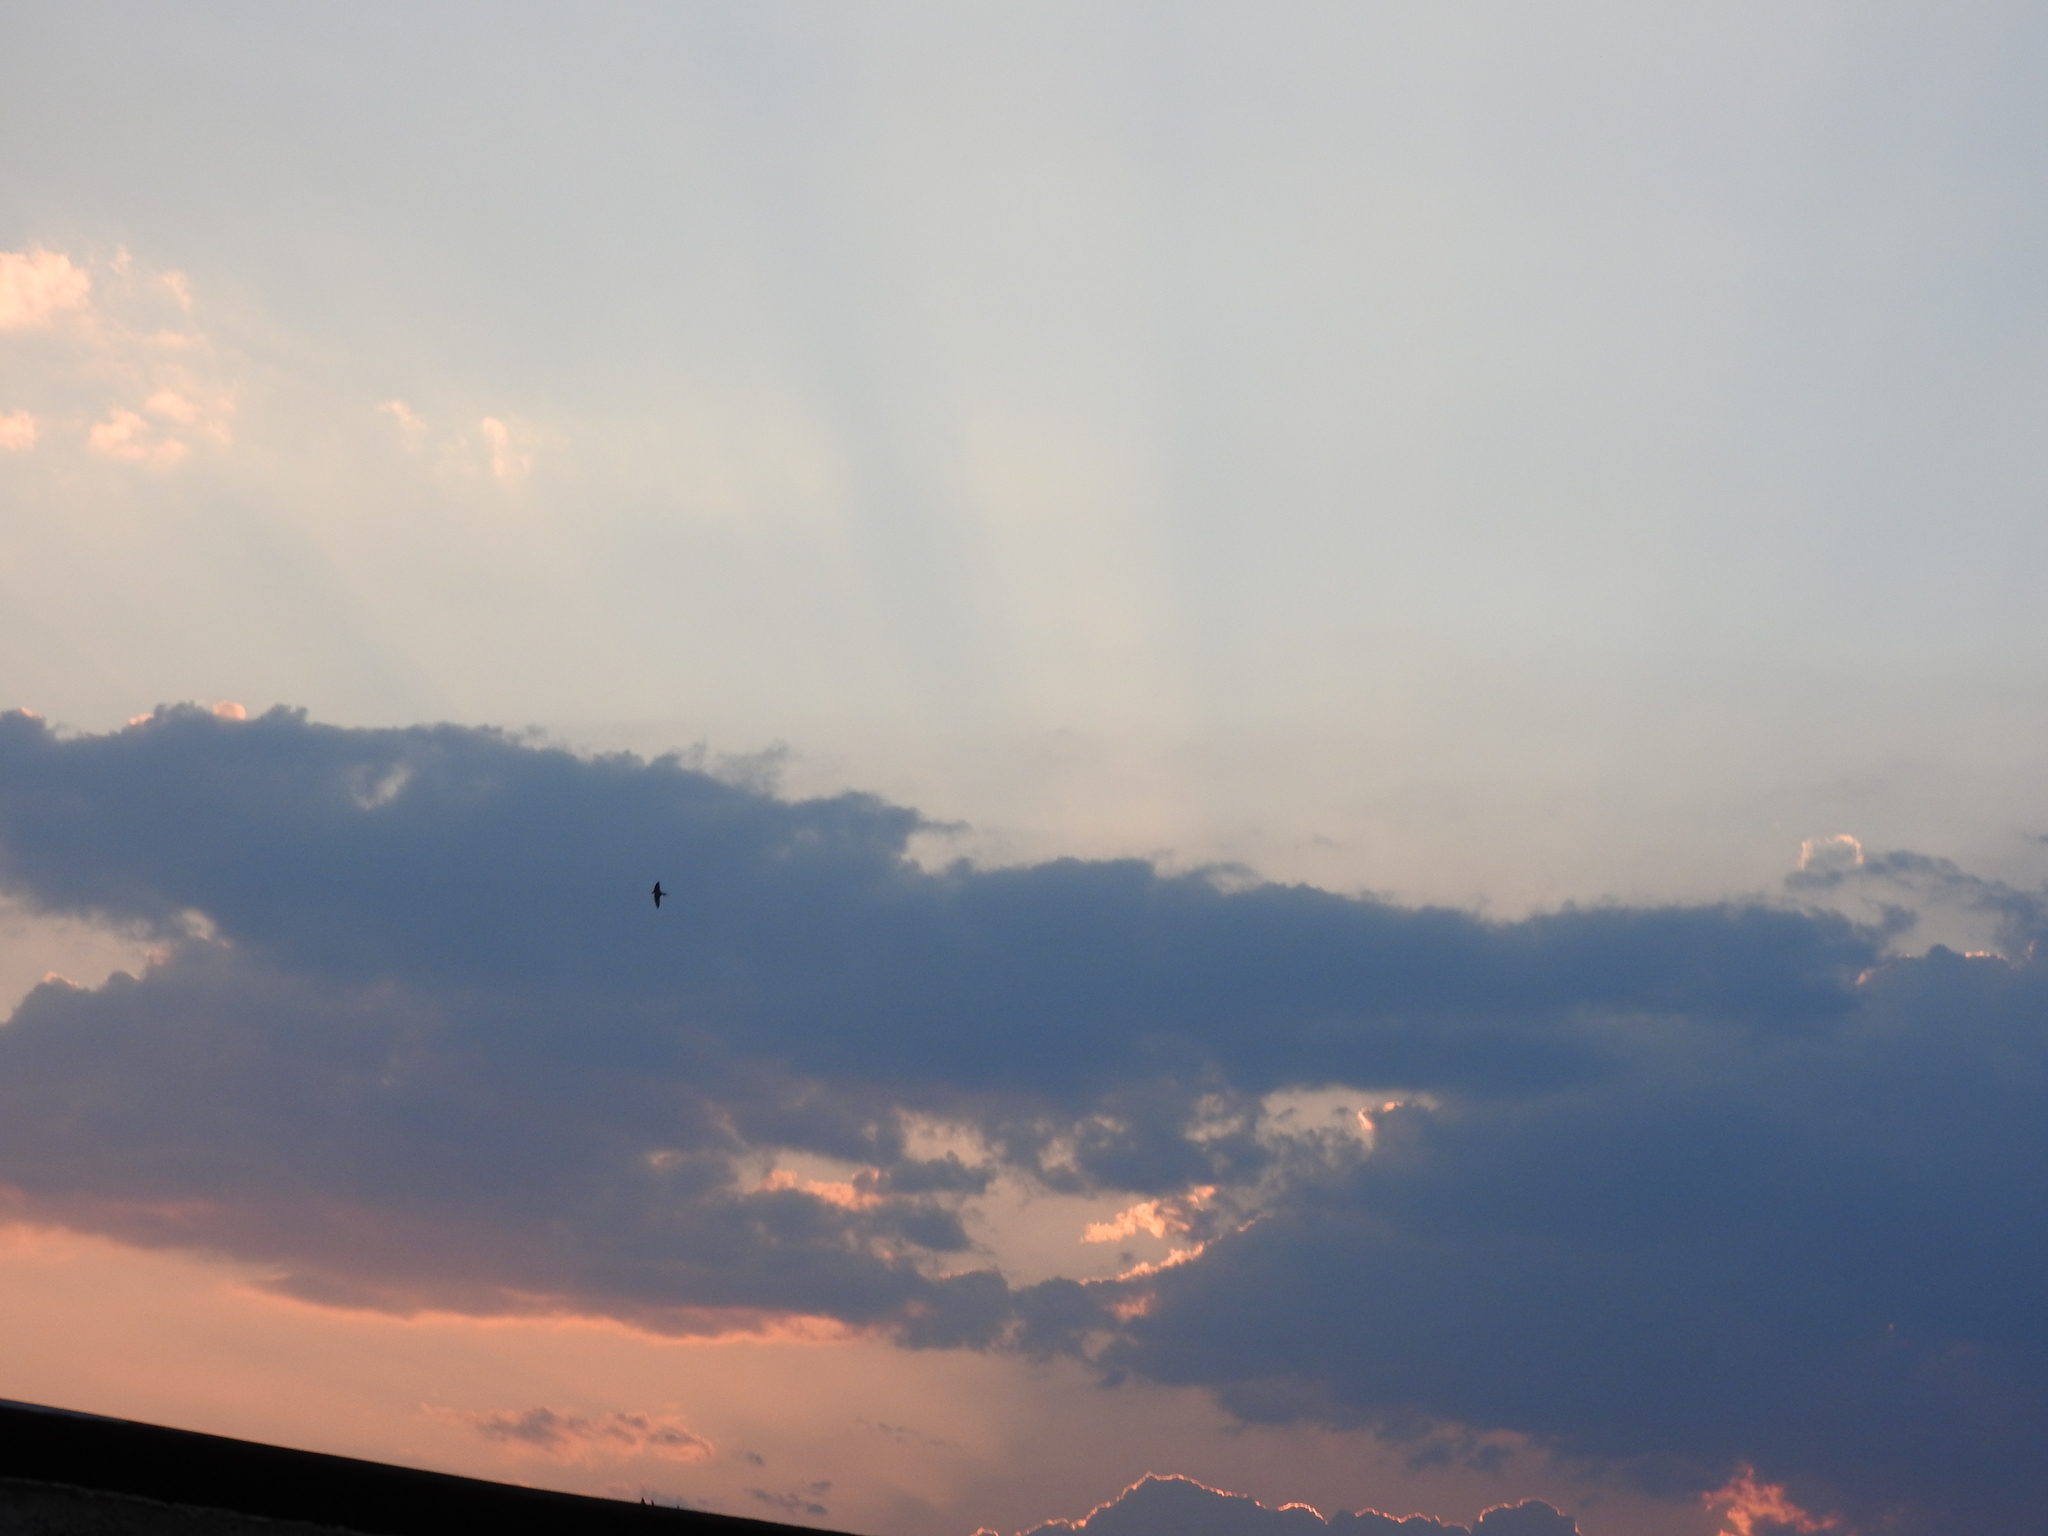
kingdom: Animalia
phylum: Chordata
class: Aves
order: Passeriformes
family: Hirundinidae
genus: Hirundo
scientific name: Hirundo rustica
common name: Barn swallow
